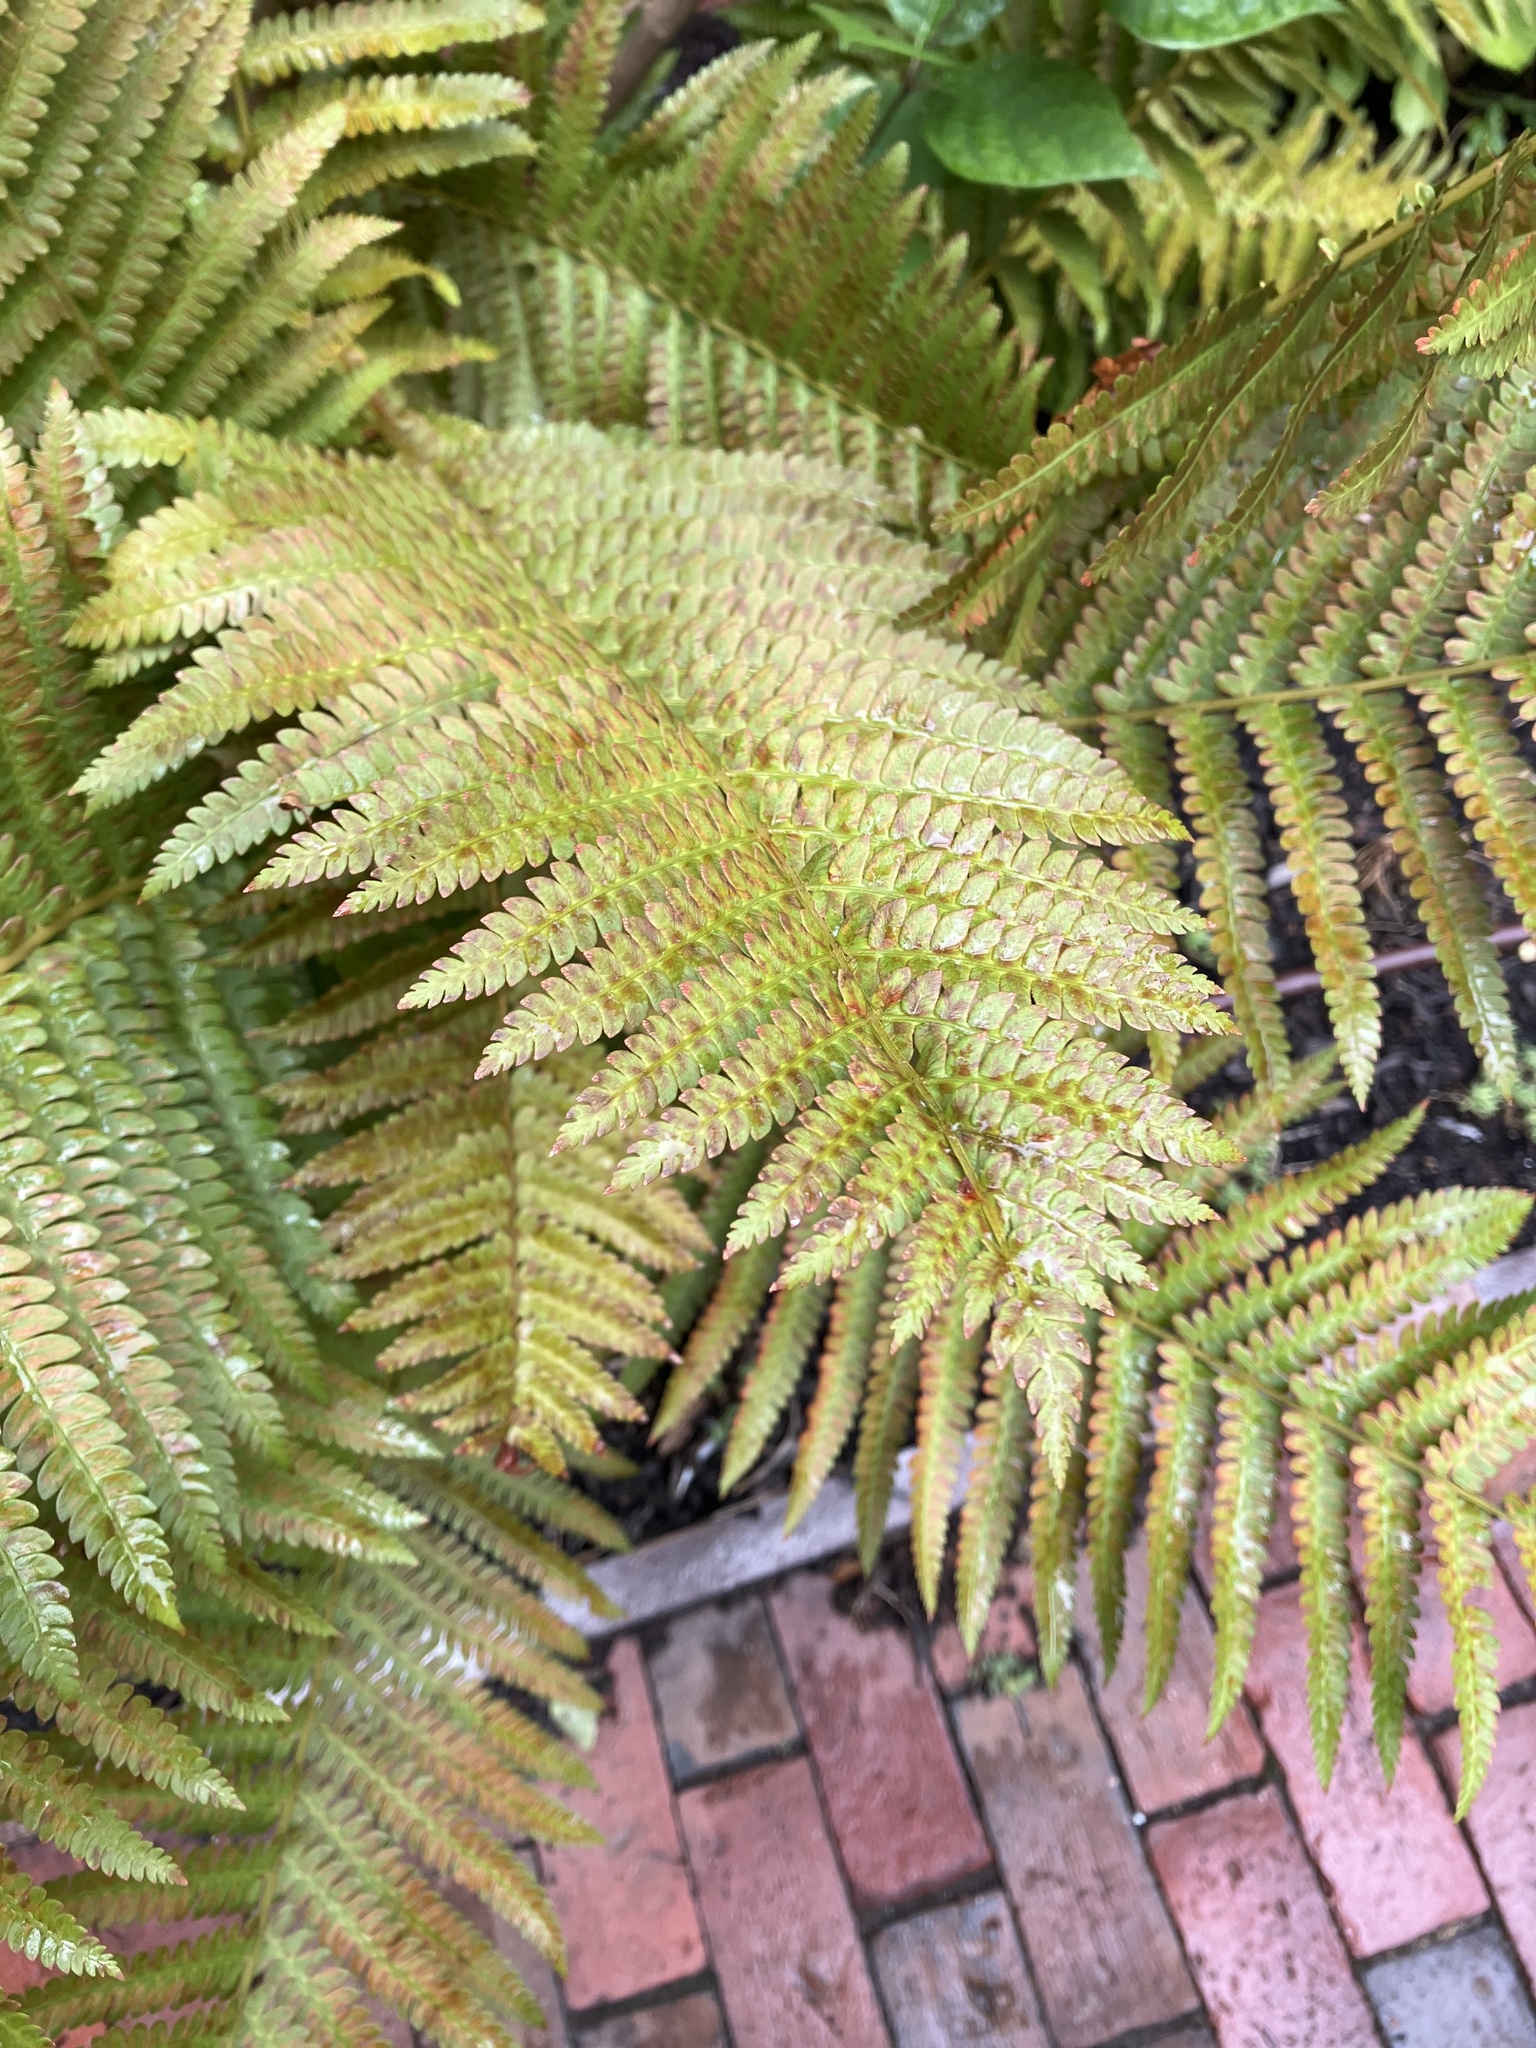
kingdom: Plantae
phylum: Tracheophyta
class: Polypodiopsida
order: Osmundales
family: Osmundaceae
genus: Osmundastrum
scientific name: Osmundastrum cinnamomeum
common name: Cinnamon fern
